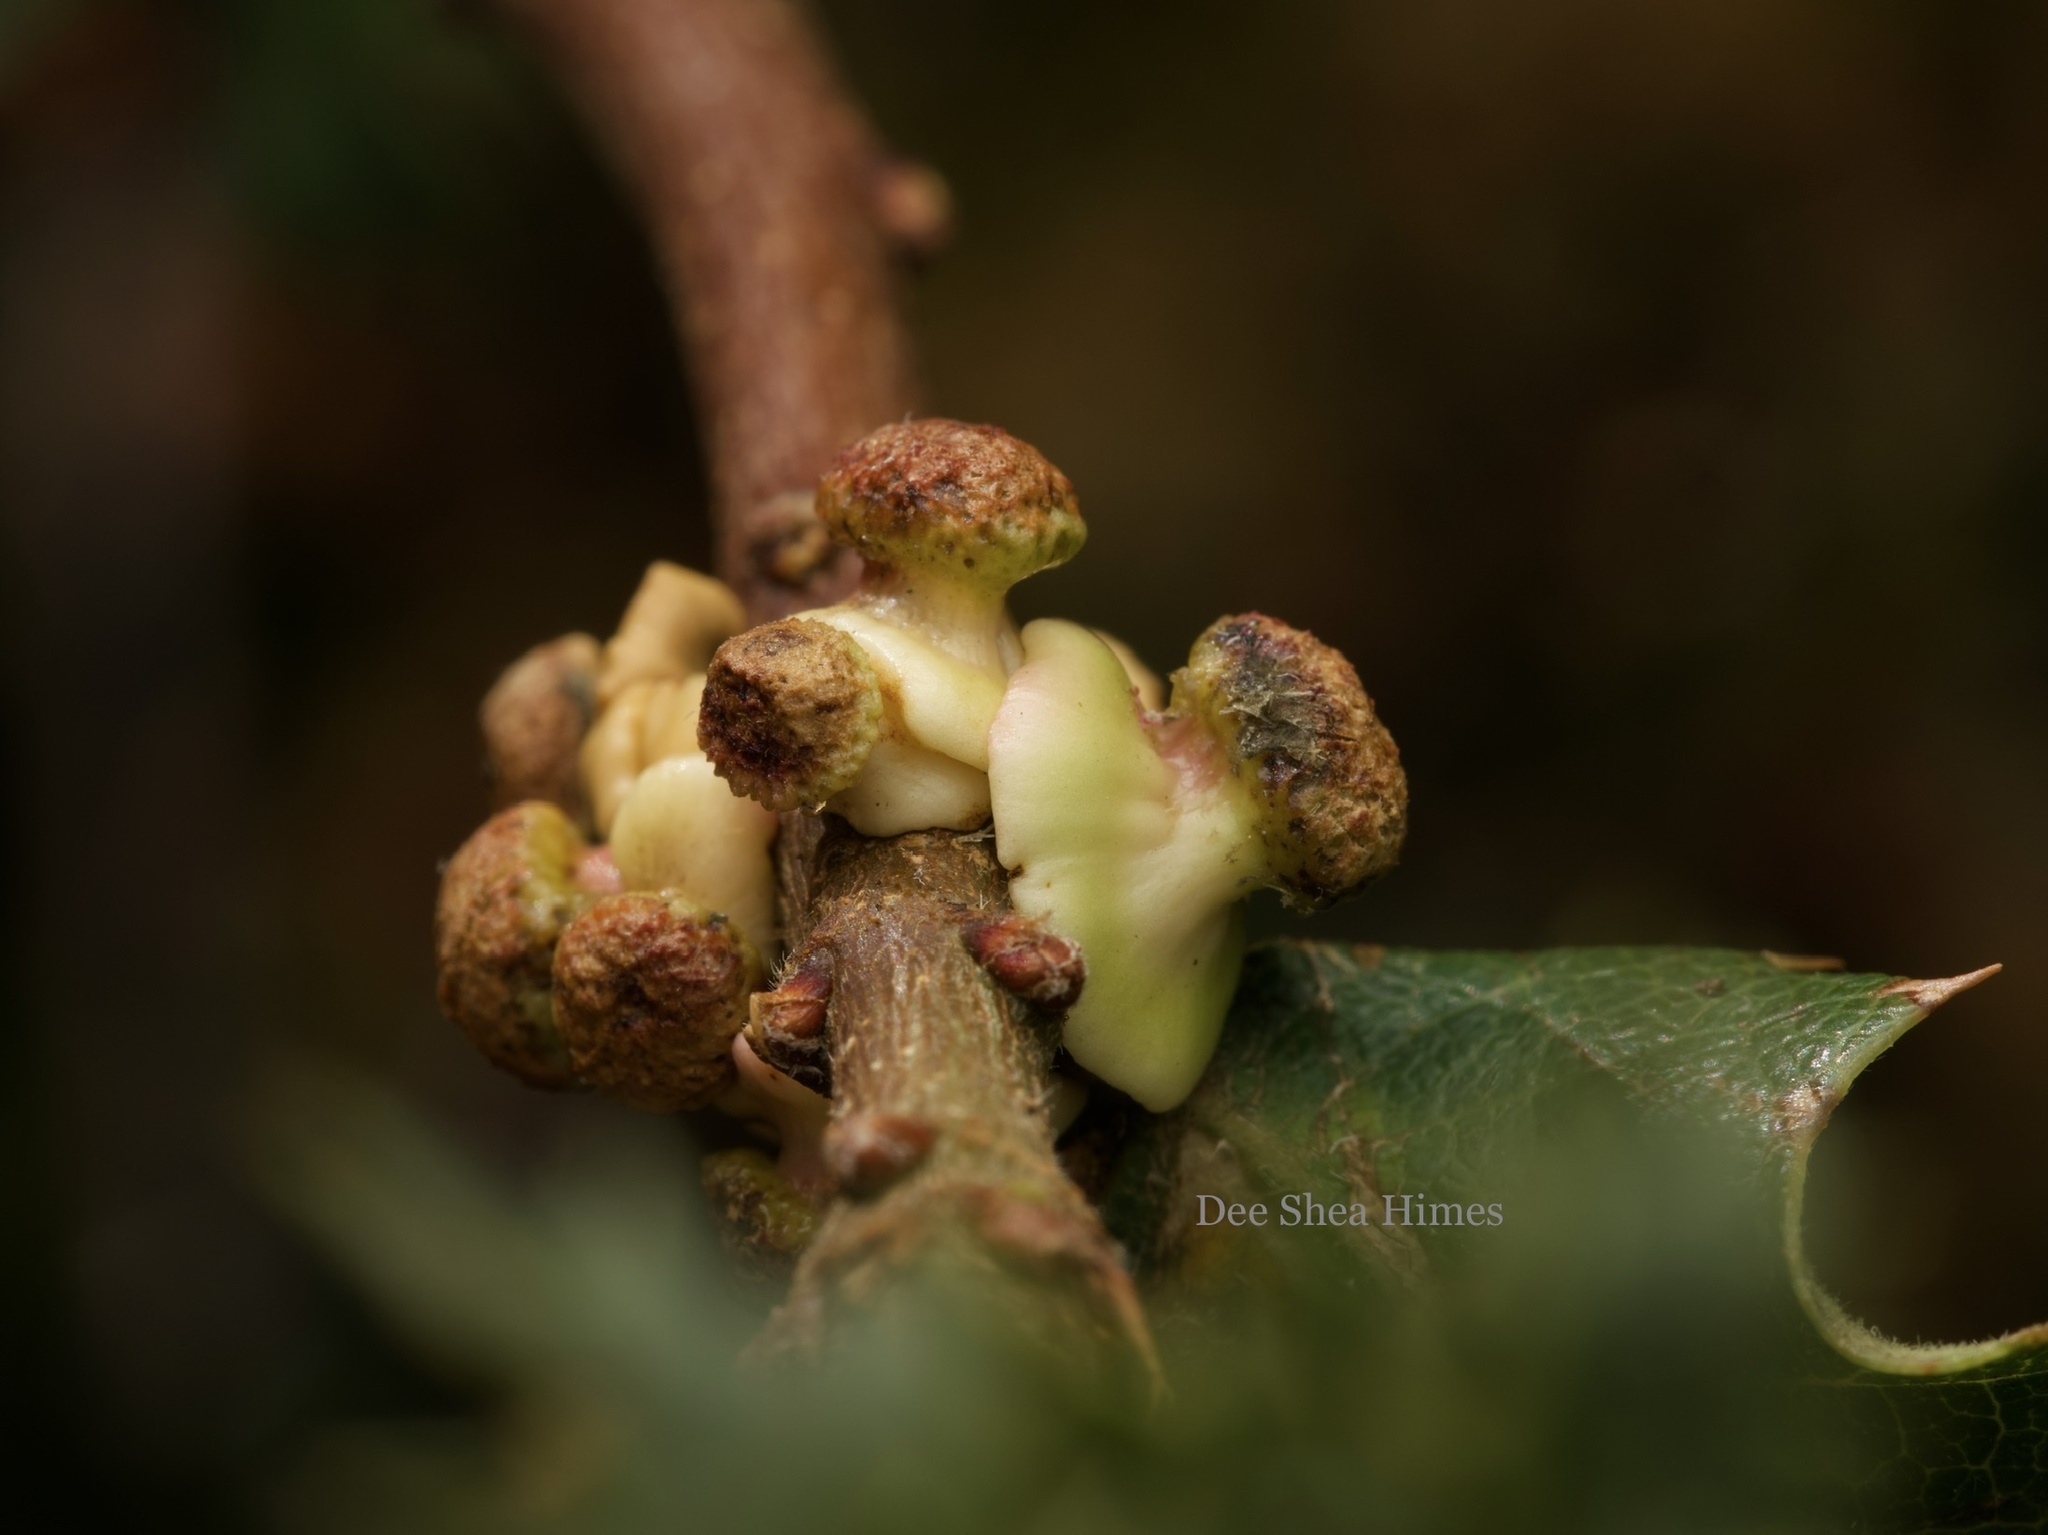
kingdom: Animalia
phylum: Arthropoda
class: Insecta
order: Hymenoptera
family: Cynipidae
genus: Disholcaspis
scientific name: Disholcaspis prehensa
